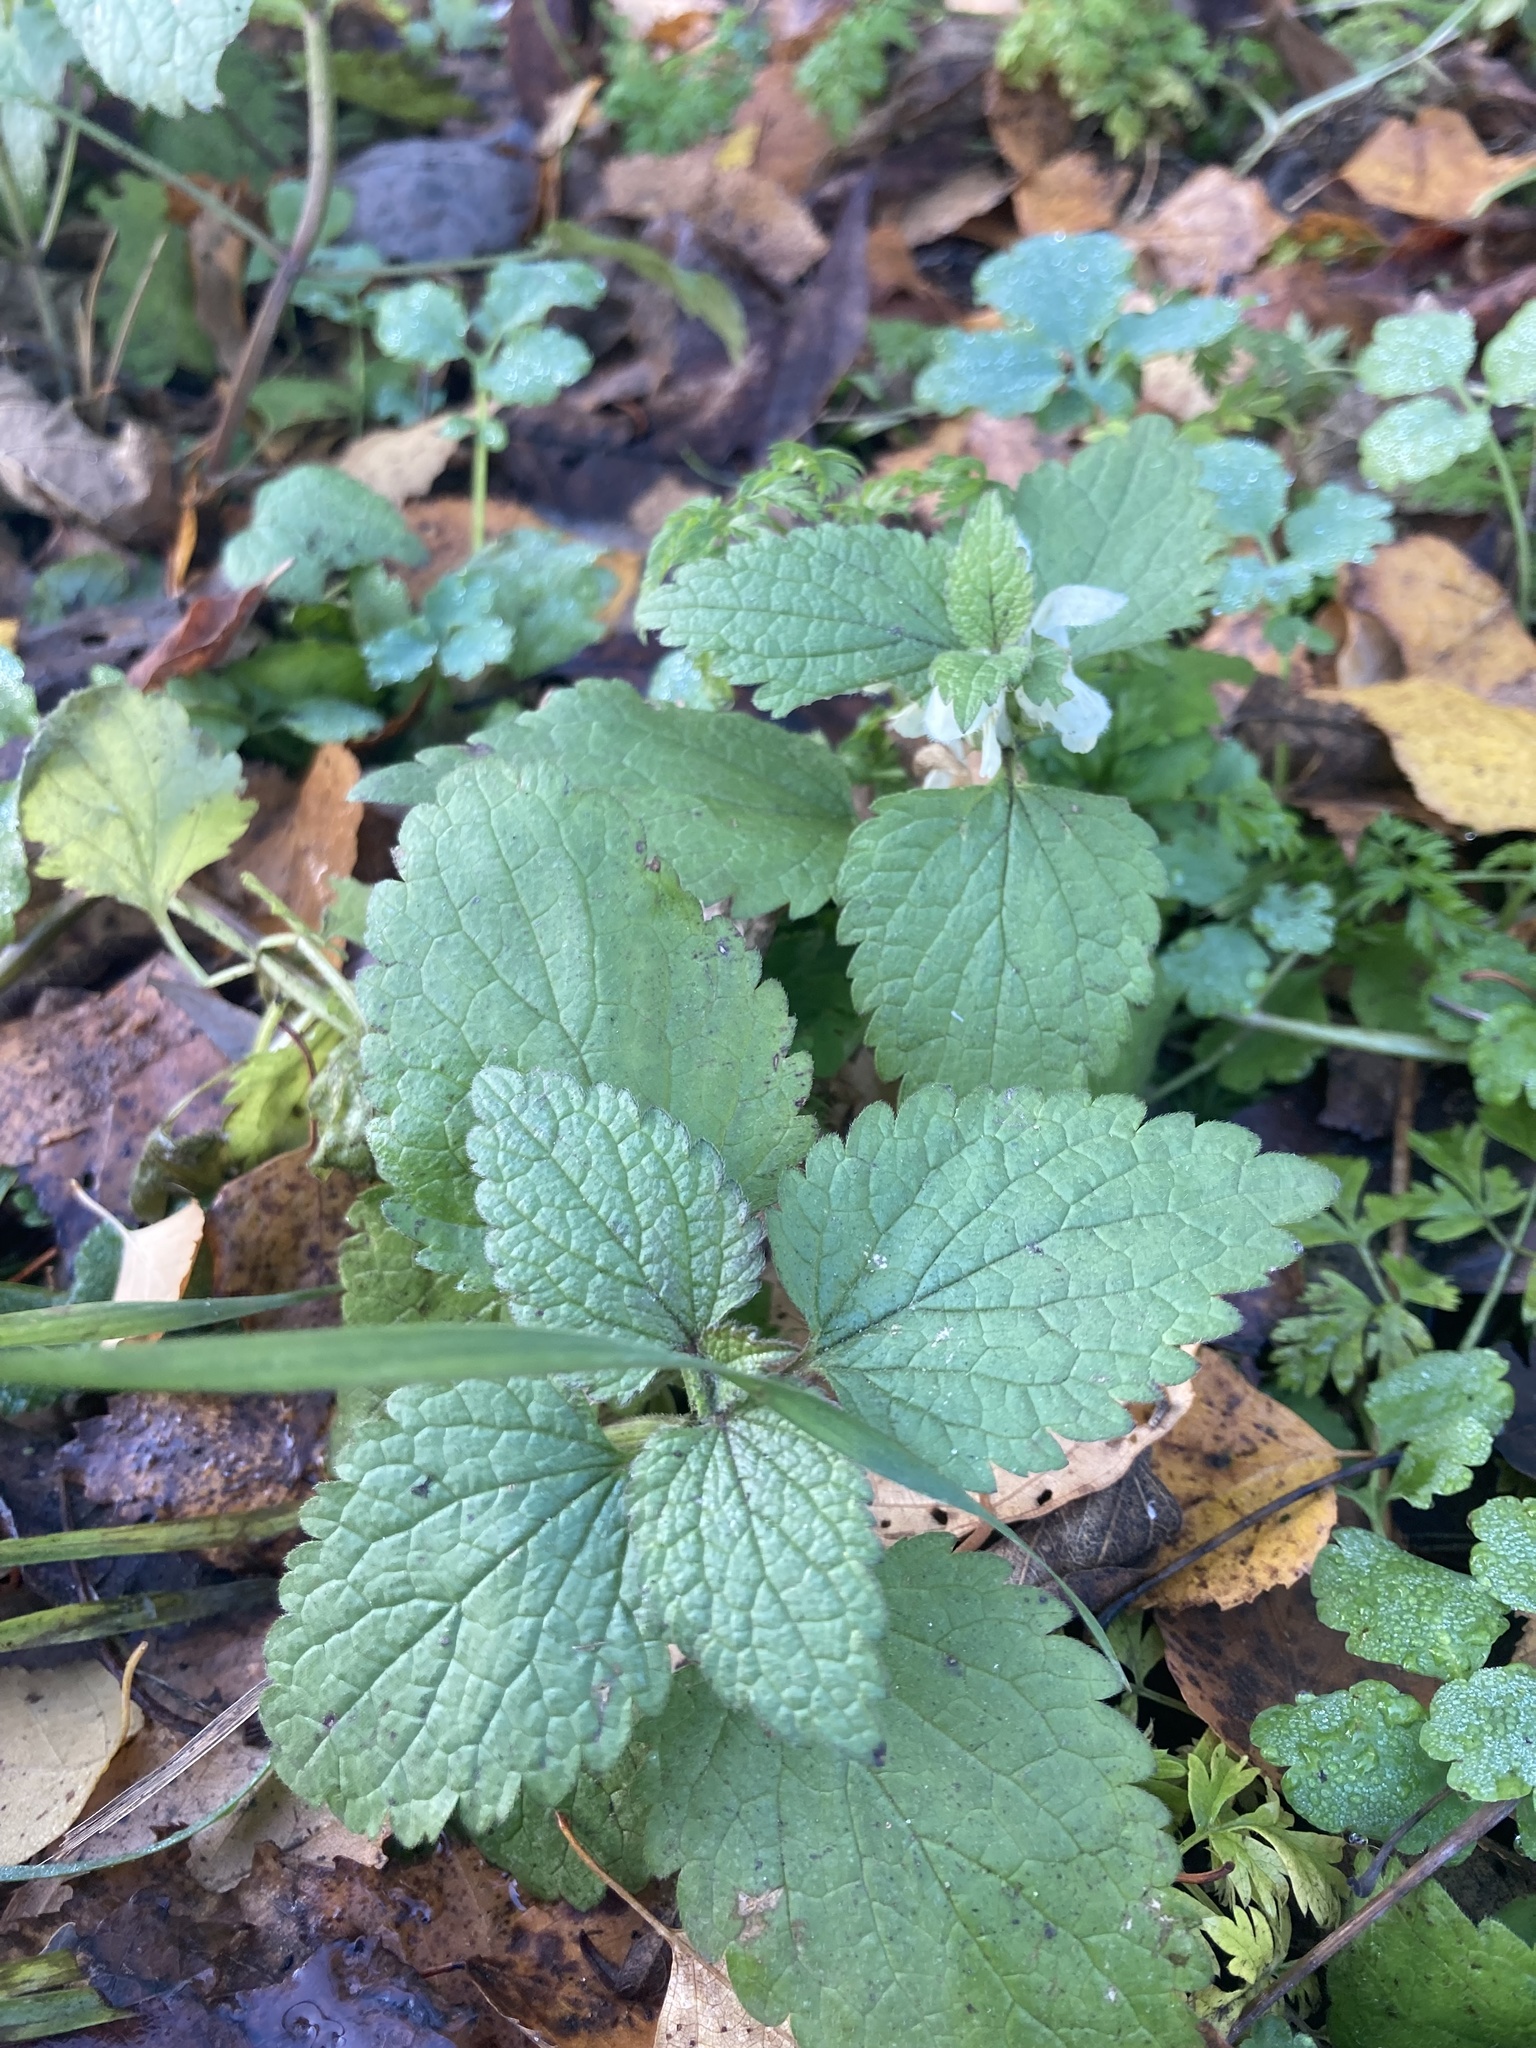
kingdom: Plantae
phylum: Tracheophyta
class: Magnoliopsida
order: Lamiales
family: Lamiaceae
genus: Lamium
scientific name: Lamium album
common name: White dead-nettle
